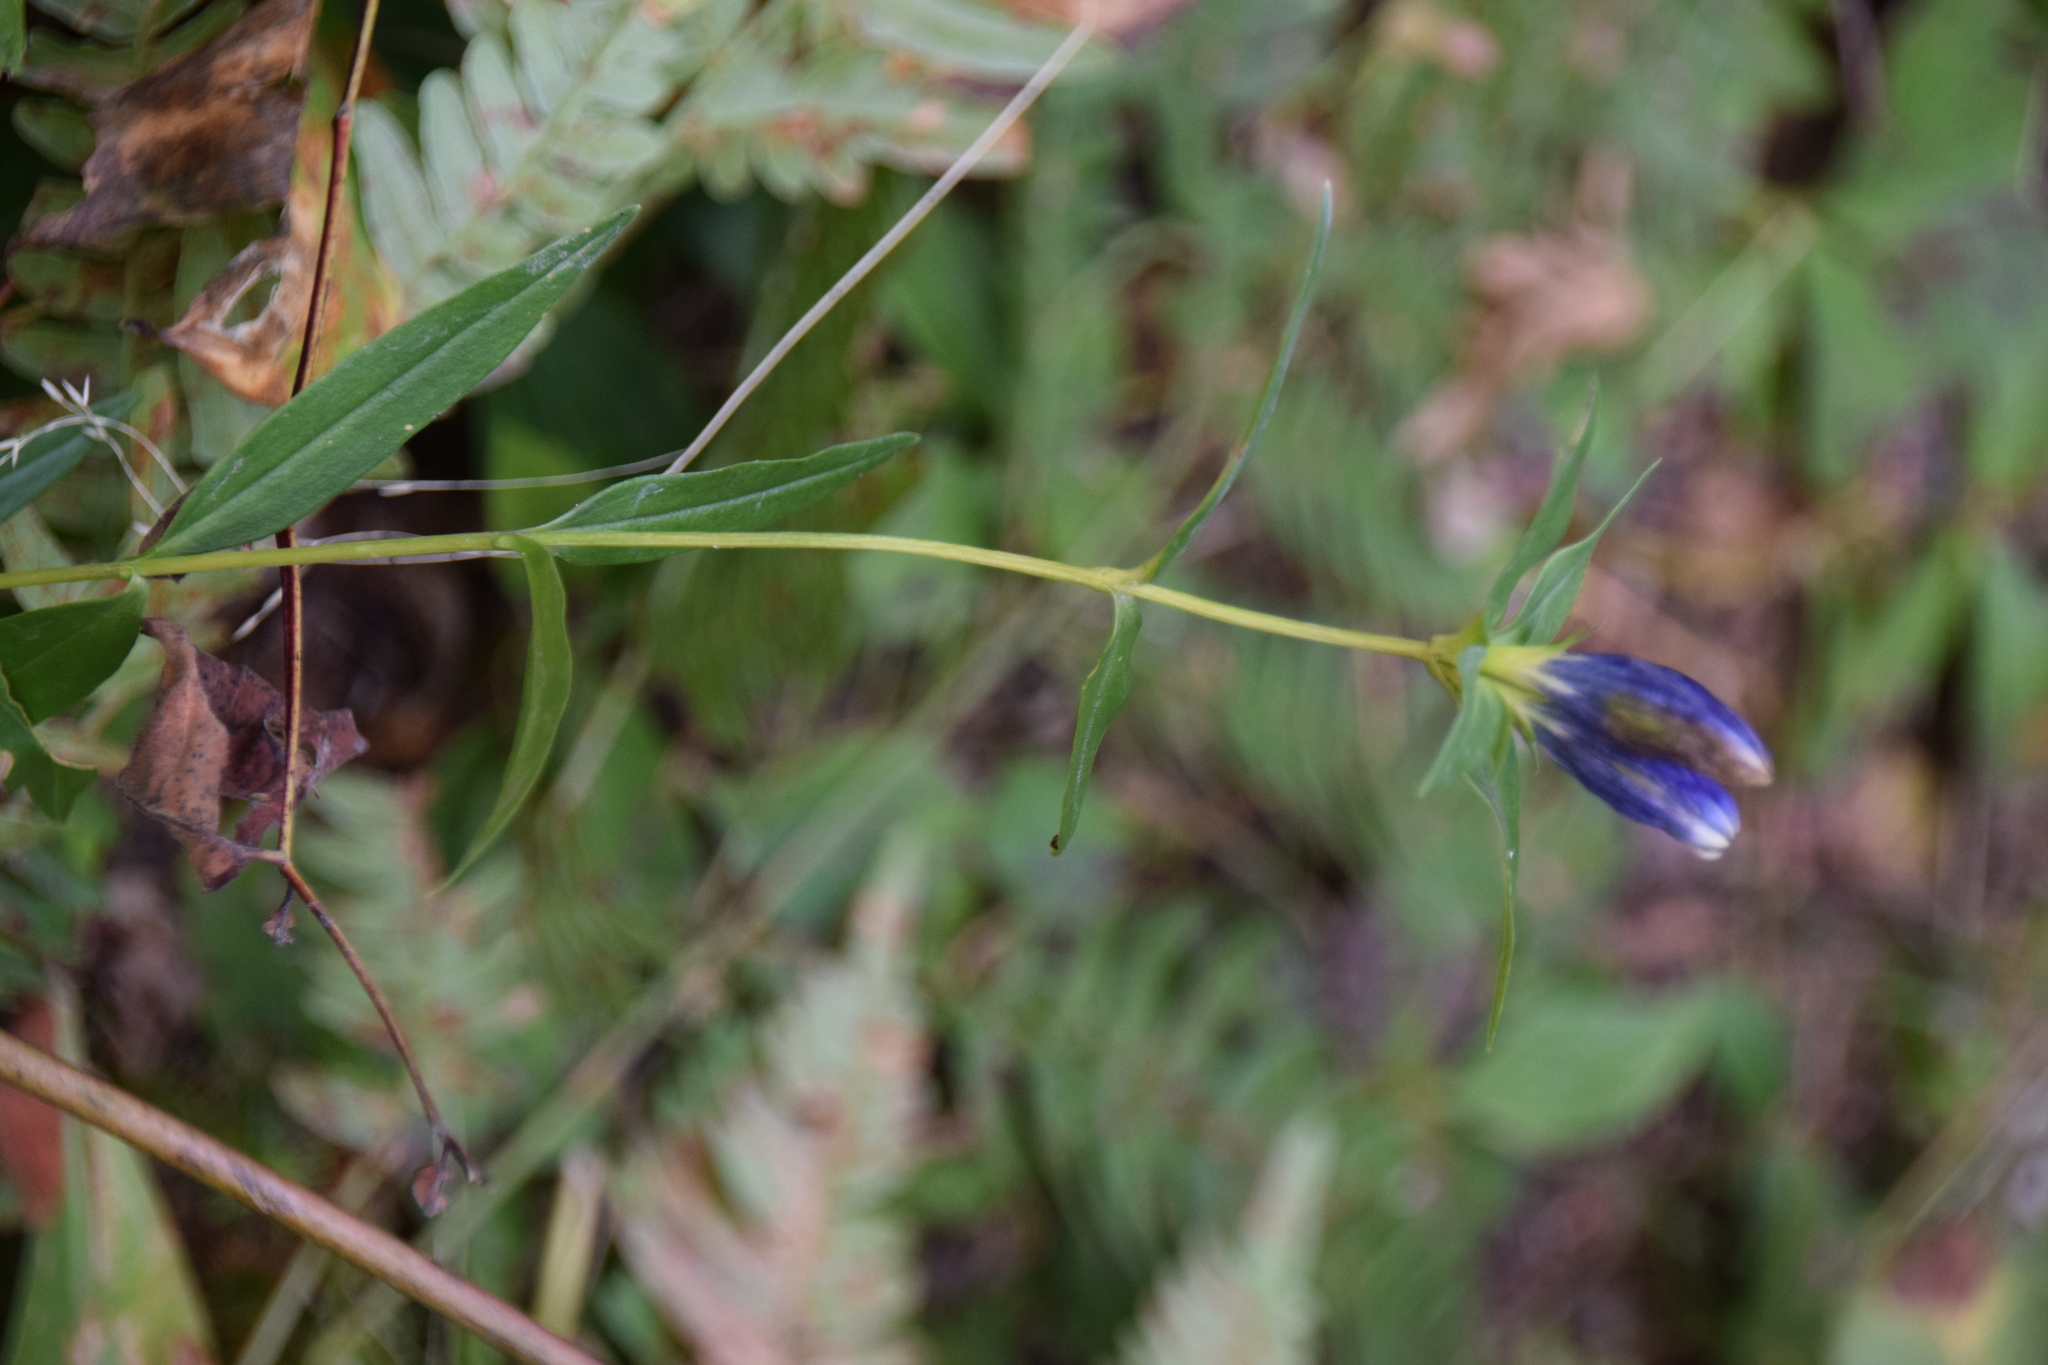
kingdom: Plantae
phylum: Tracheophyta
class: Magnoliopsida
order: Gentianales
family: Gentianaceae
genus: Gentiana
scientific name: Gentiana linearis
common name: Bastard gentian
